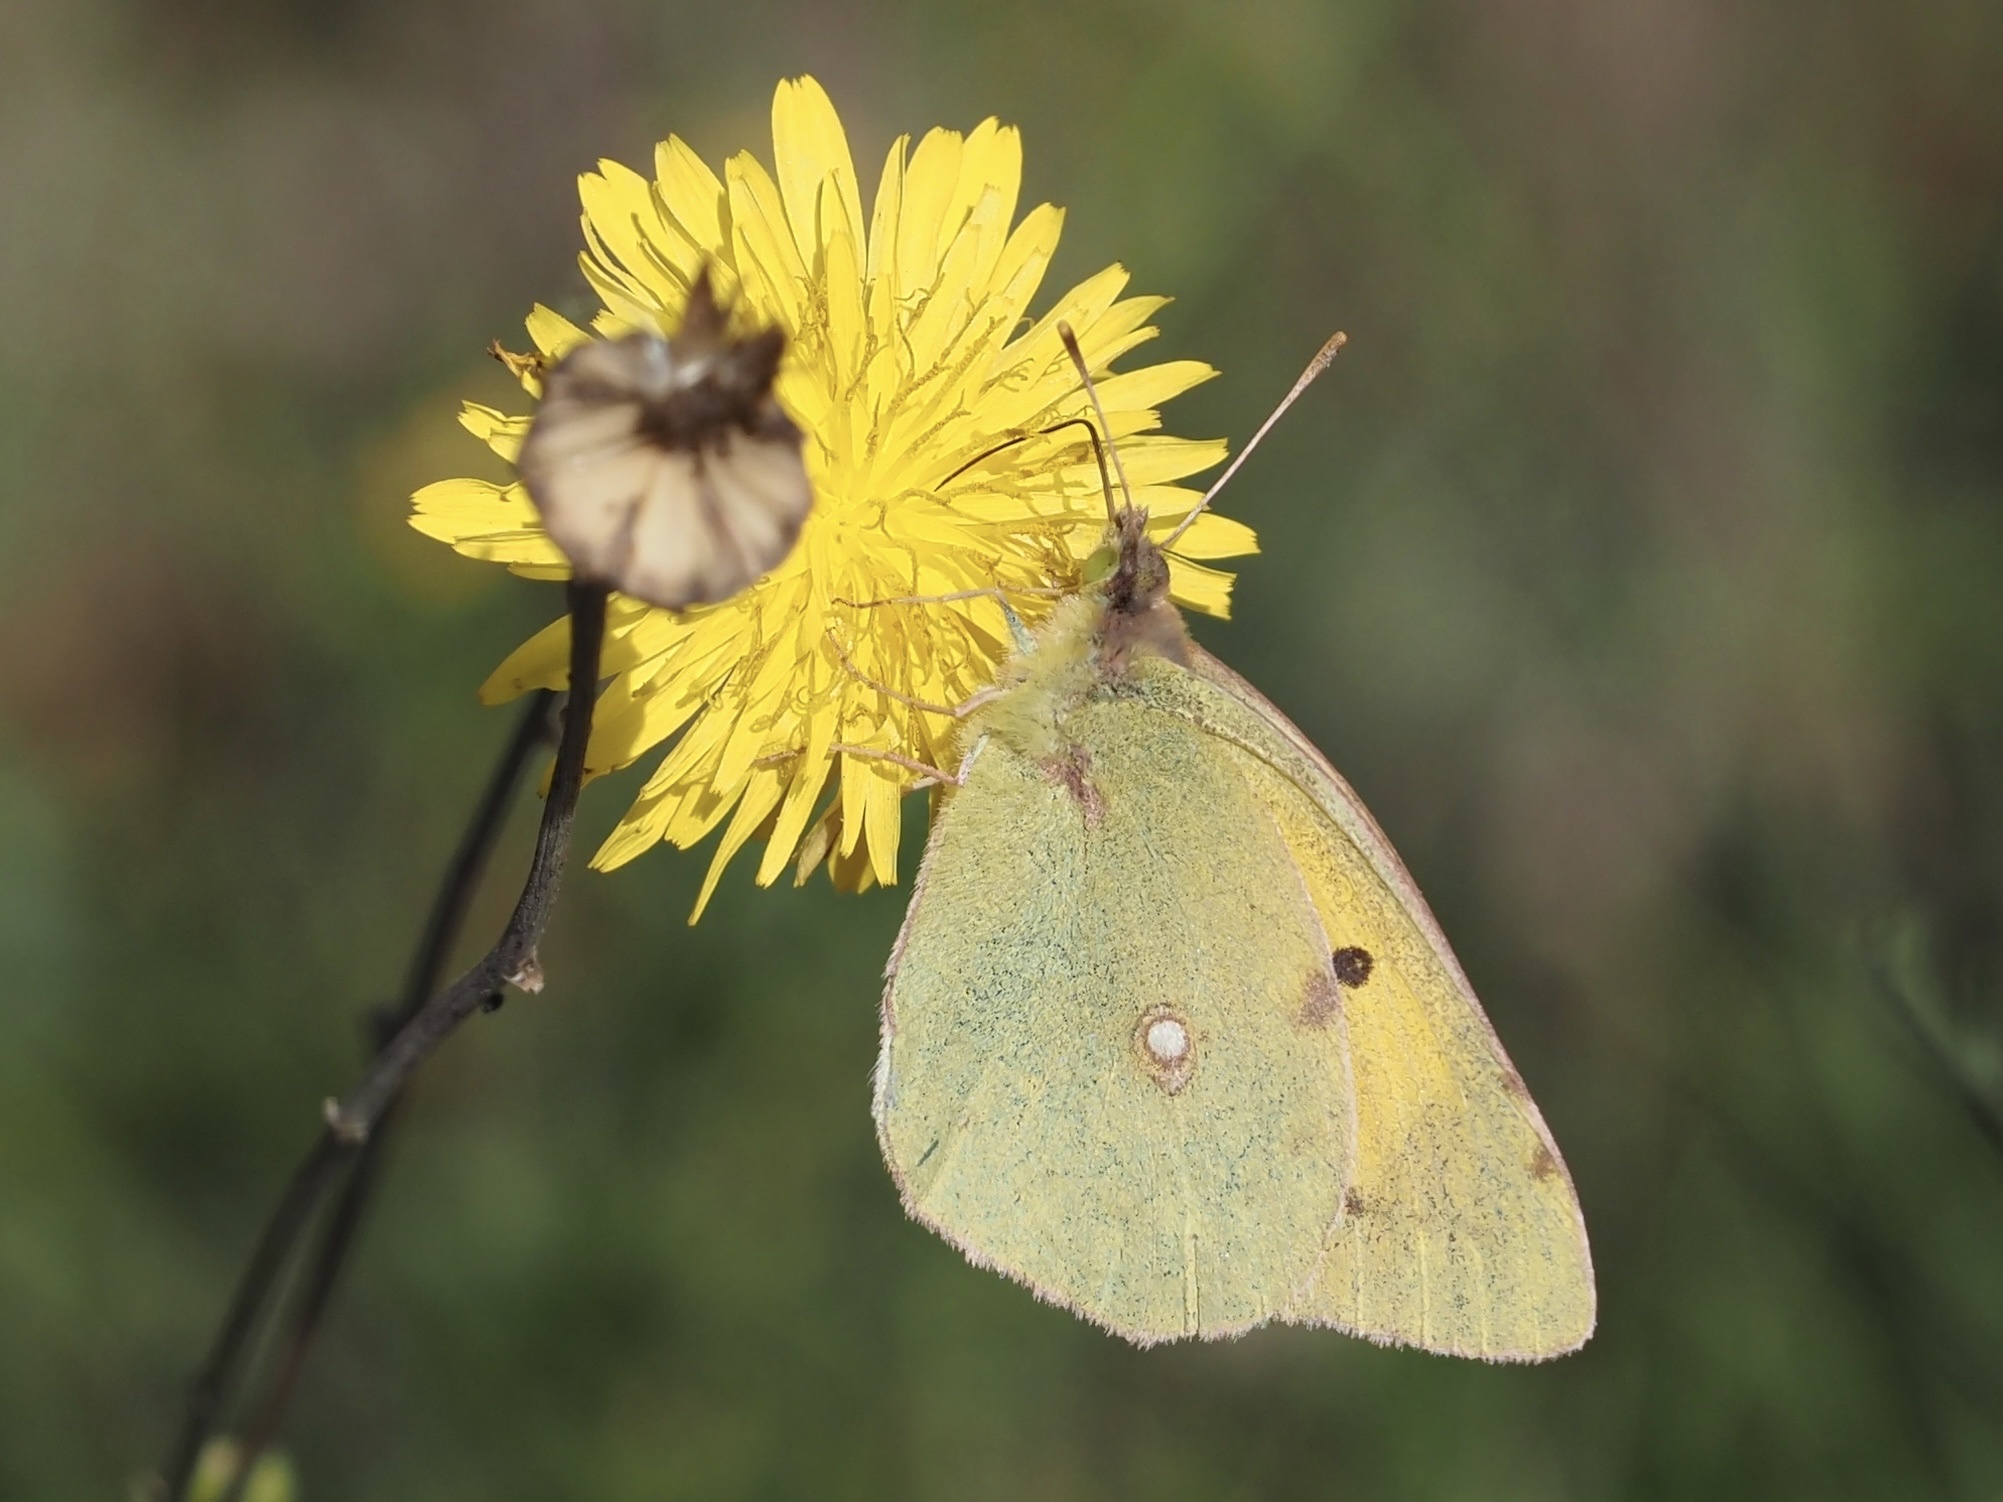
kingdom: Animalia
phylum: Arthropoda
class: Insecta
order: Lepidoptera
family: Pieridae
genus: Colias
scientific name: Colias croceus
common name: Clouded yellow
